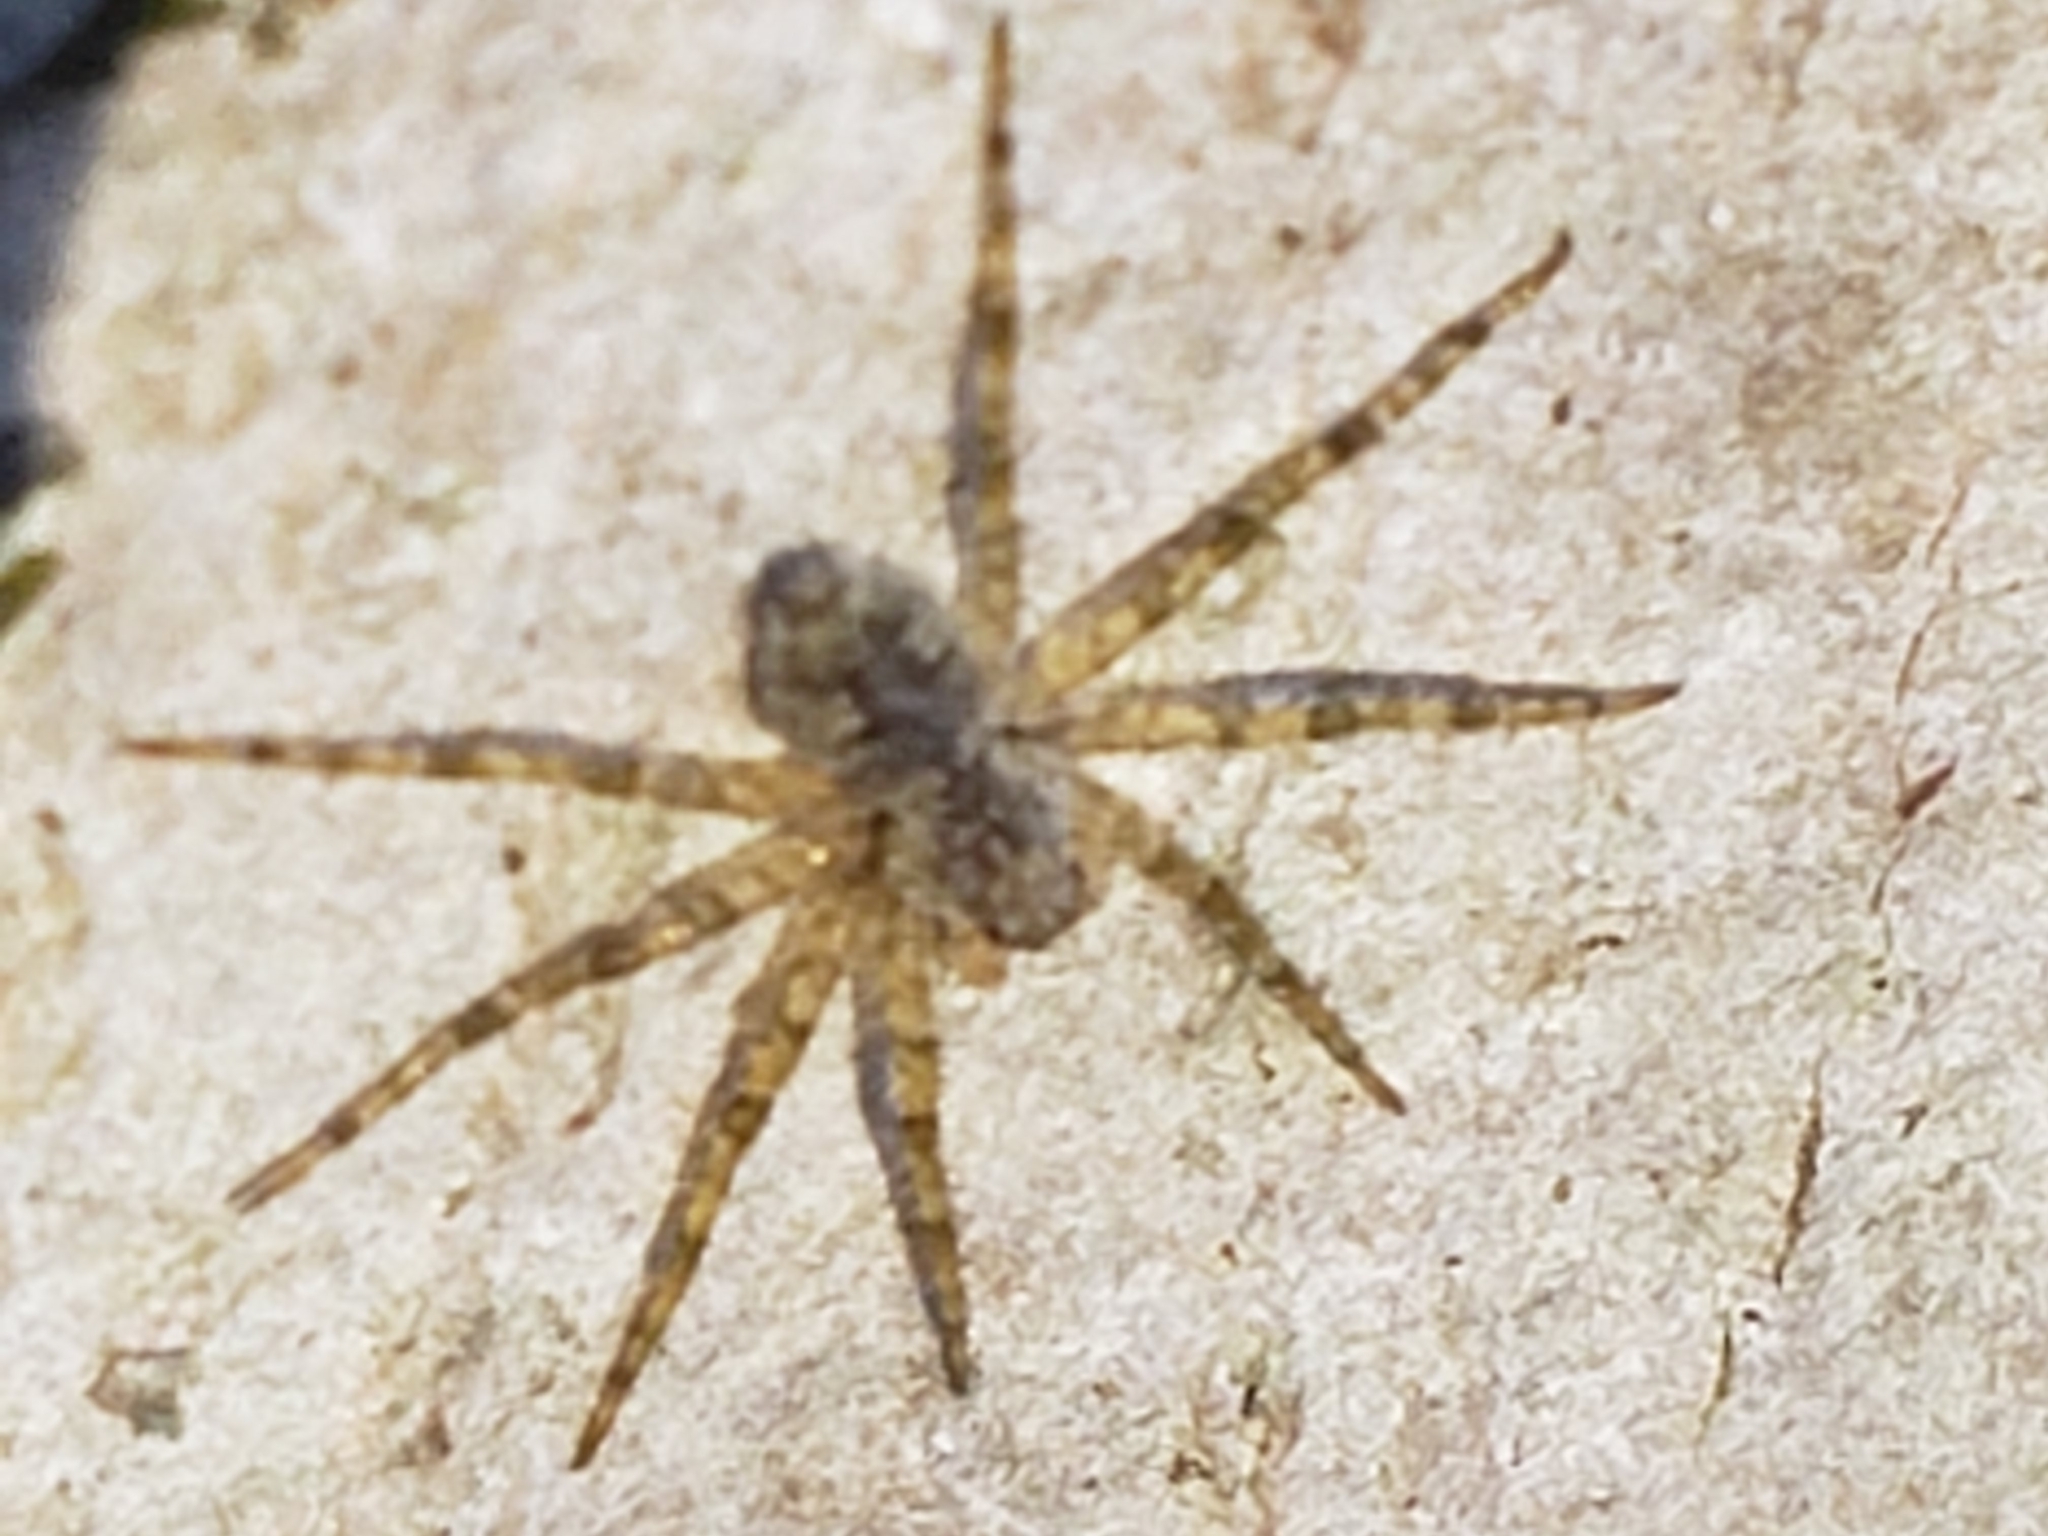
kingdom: Animalia
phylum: Arthropoda
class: Arachnida
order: Araneae
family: Pisauridae
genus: Dolomedes
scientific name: Dolomedes albineus
